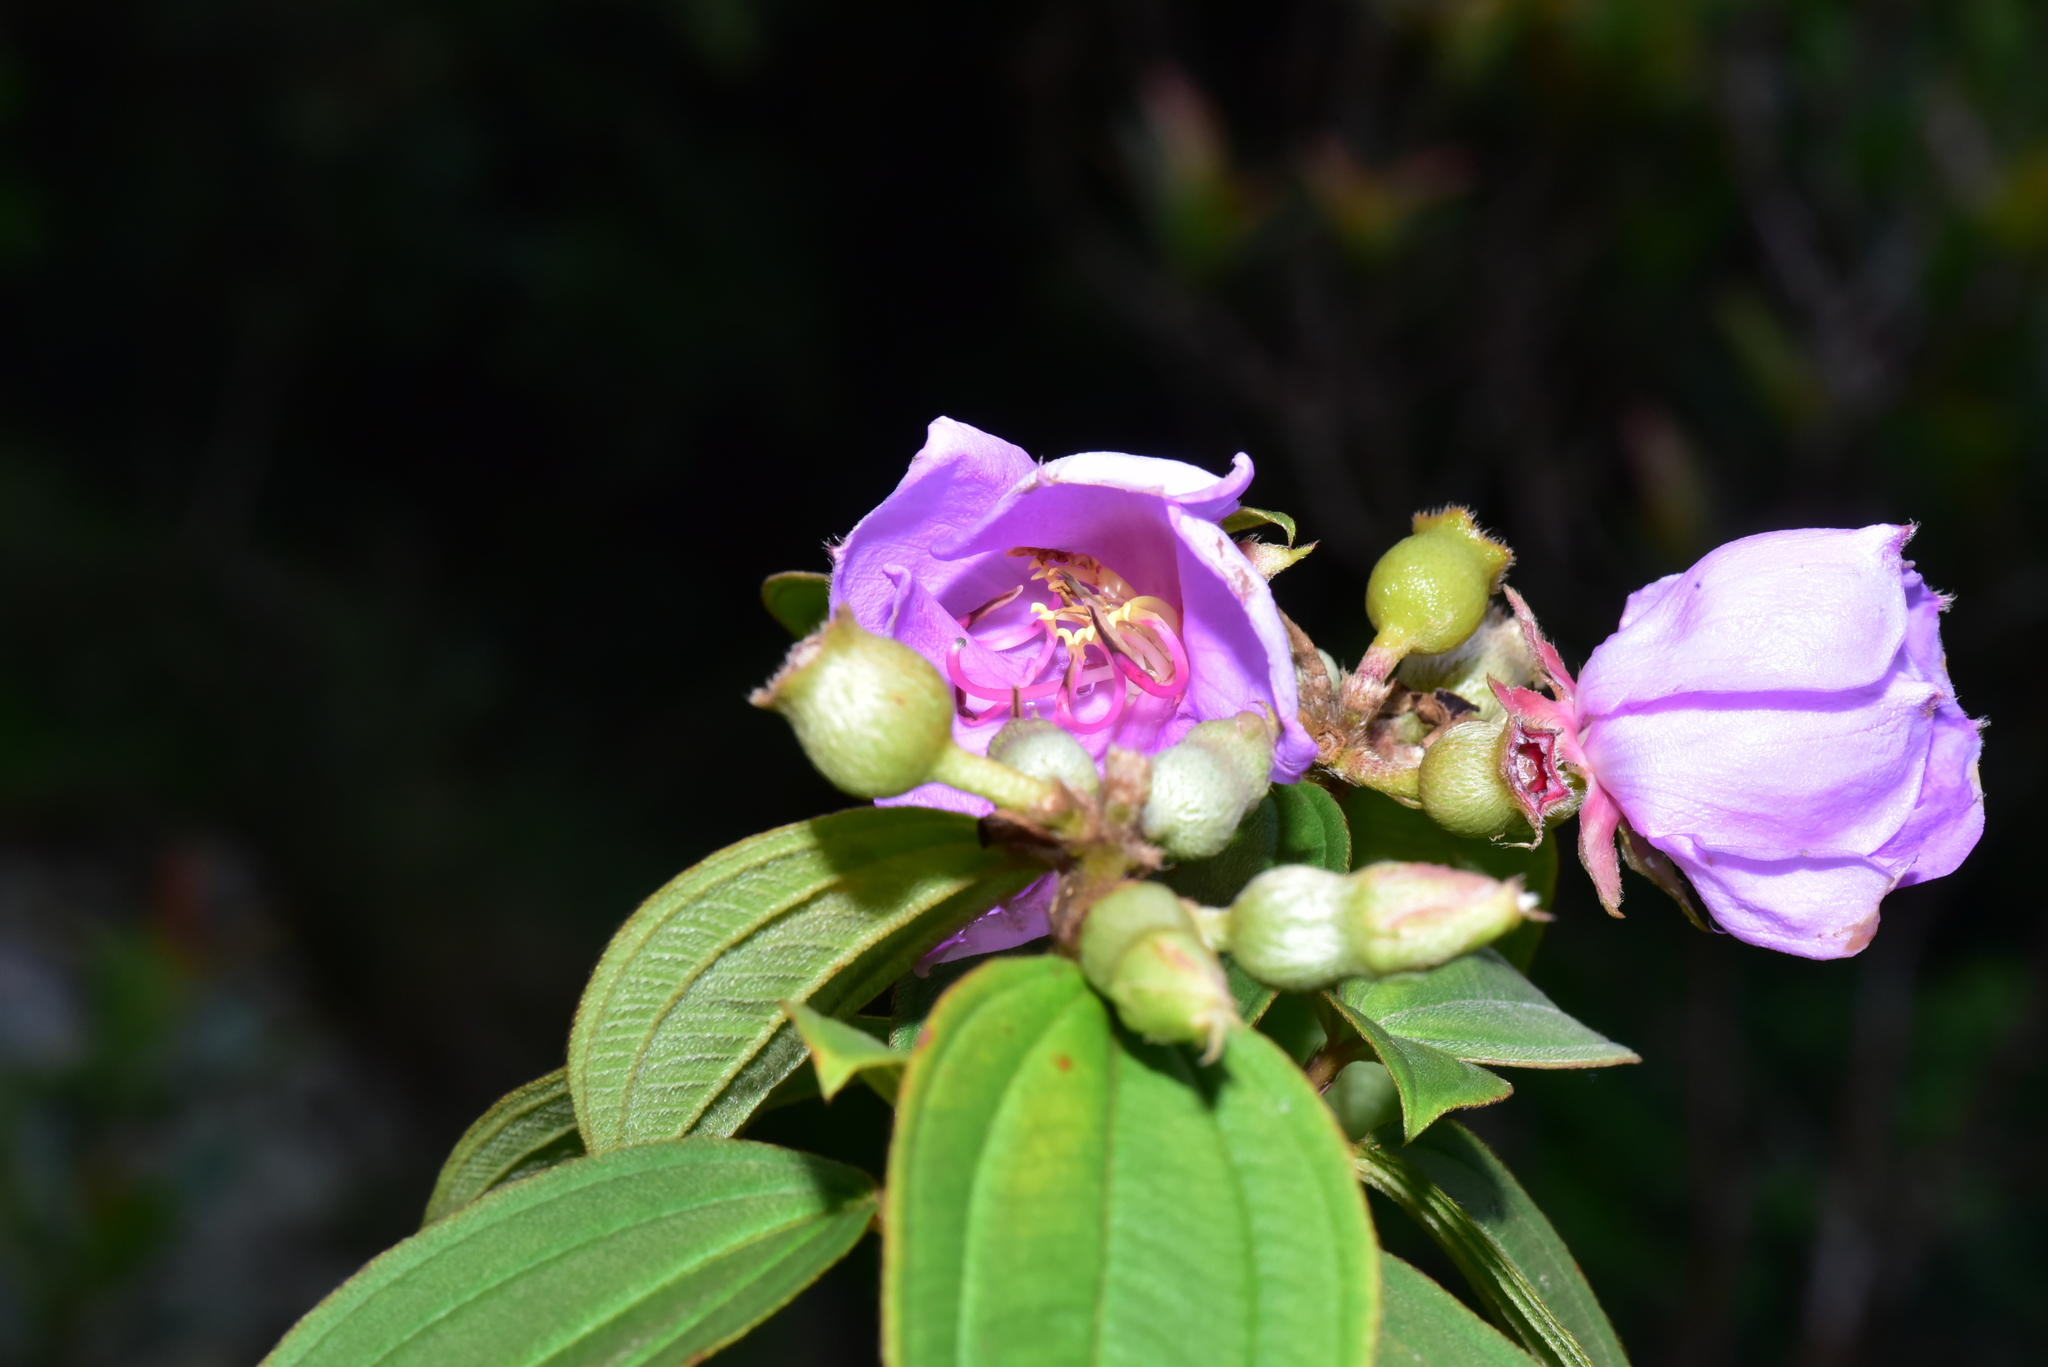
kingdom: Plantae
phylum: Tracheophyta
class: Magnoliopsida
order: Myrtales
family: Melastomataceae
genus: Melastoma
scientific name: Melastoma malabathricum
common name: Indian-rhododendron
